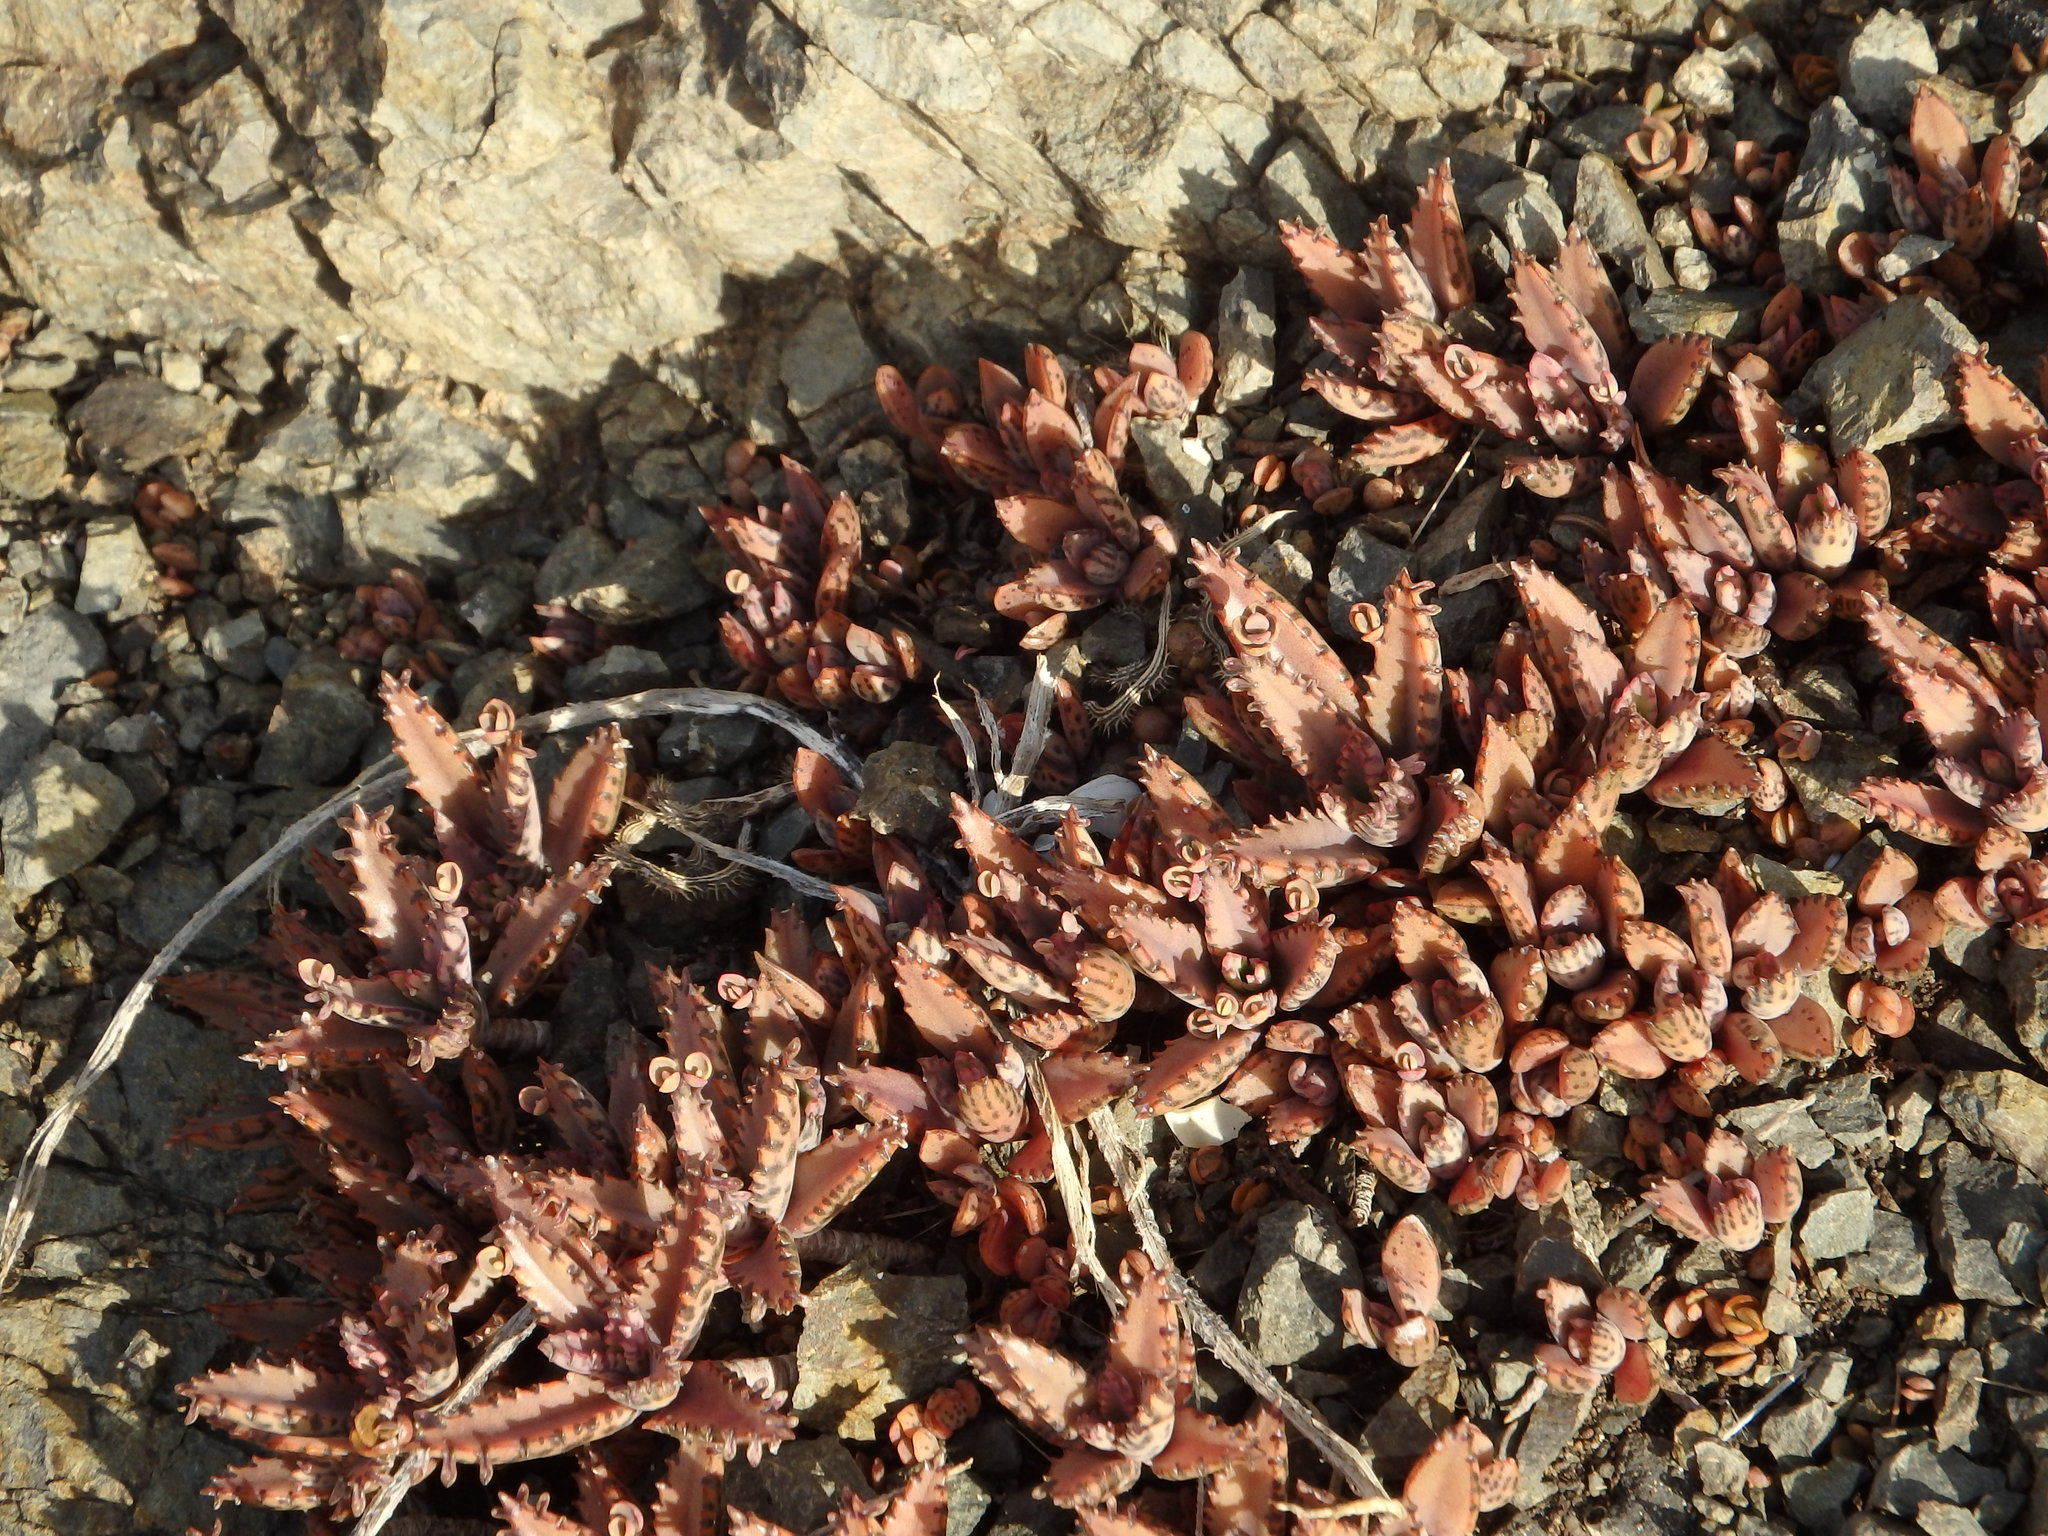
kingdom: Plantae
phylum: Tracheophyta
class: Magnoliopsida
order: Saxifragales
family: Crassulaceae
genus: Kalanchoe
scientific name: Kalanchoe houghtonii
